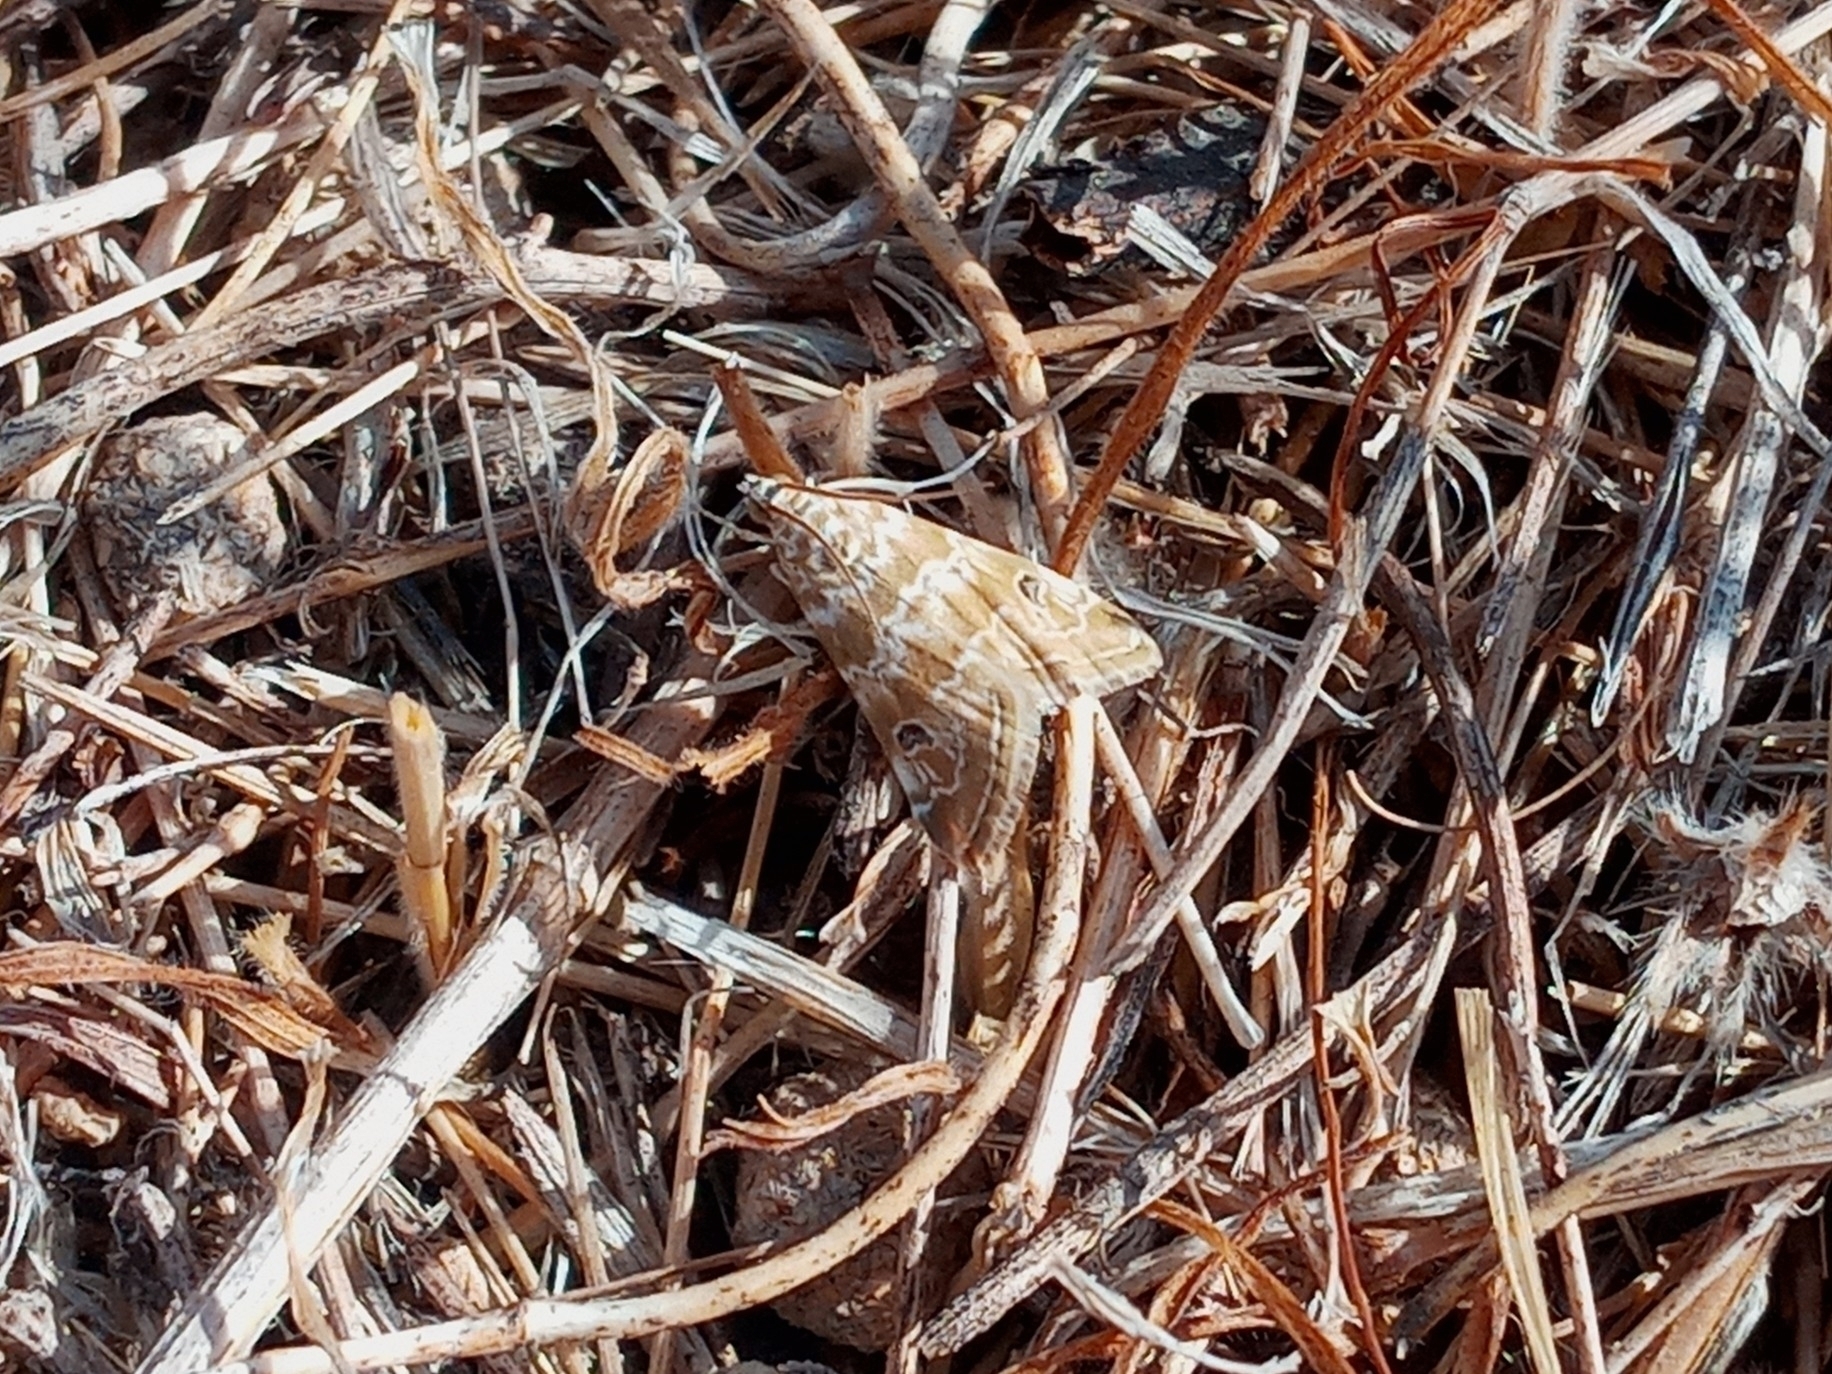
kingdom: Animalia
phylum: Arthropoda
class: Insecta
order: Lepidoptera
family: Crambidae
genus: Hellula
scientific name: Hellula rogatalis
